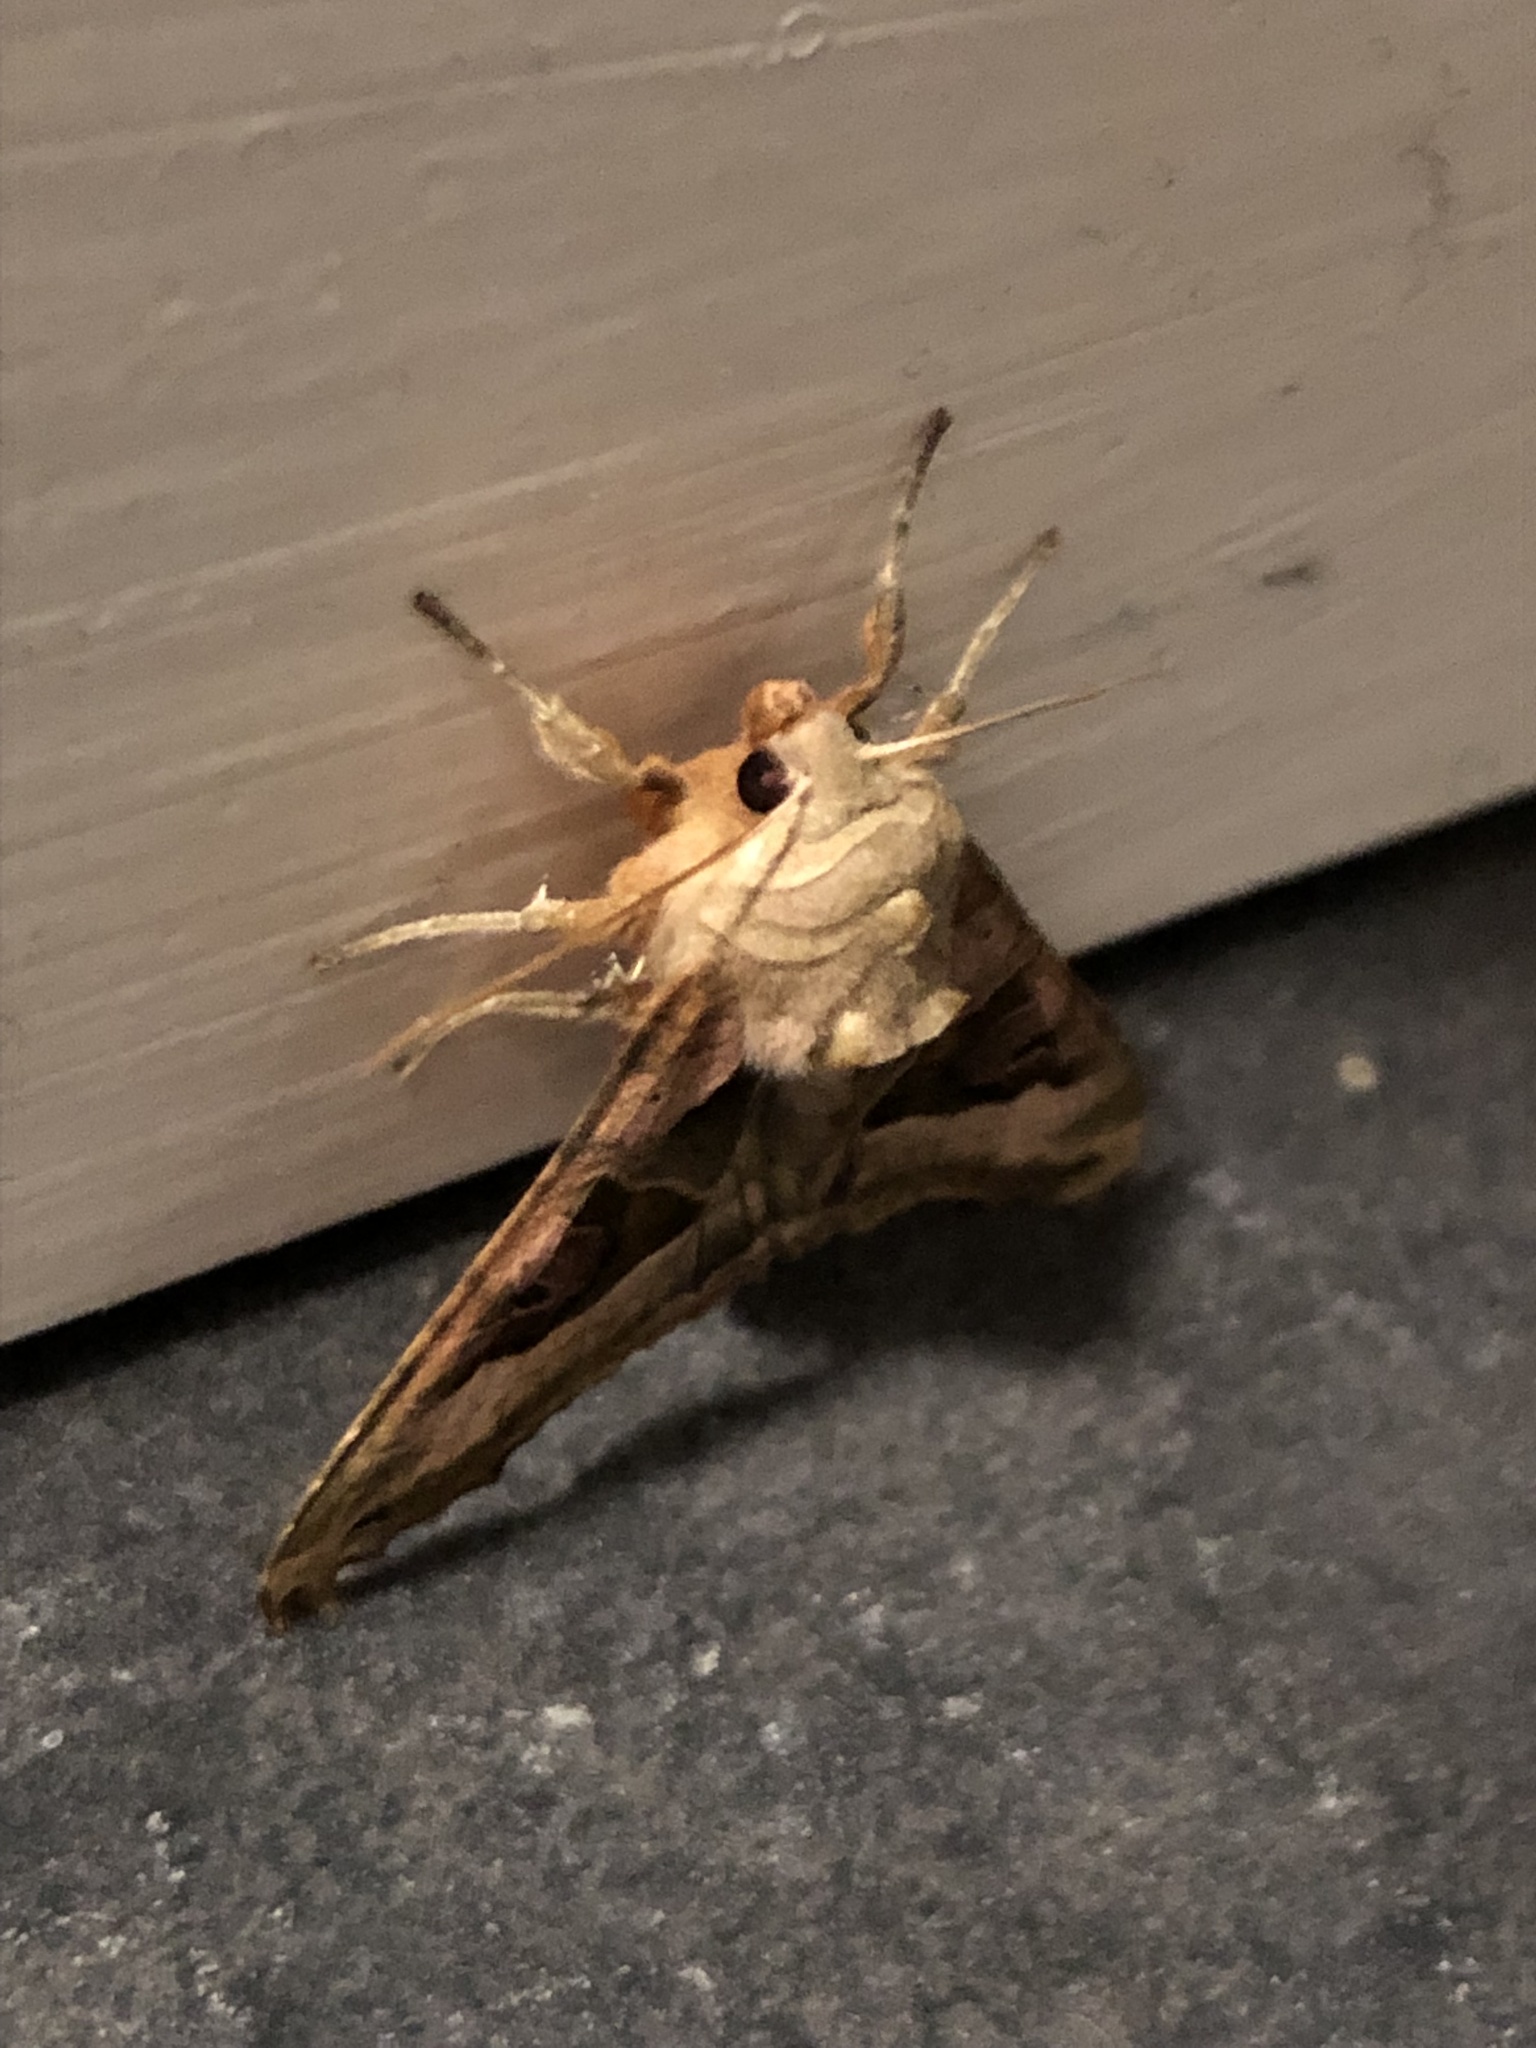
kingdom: Animalia
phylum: Arthropoda
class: Insecta
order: Lepidoptera
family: Noctuidae
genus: Phlogophora
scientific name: Phlogophora meticulosa
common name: Angle shades
